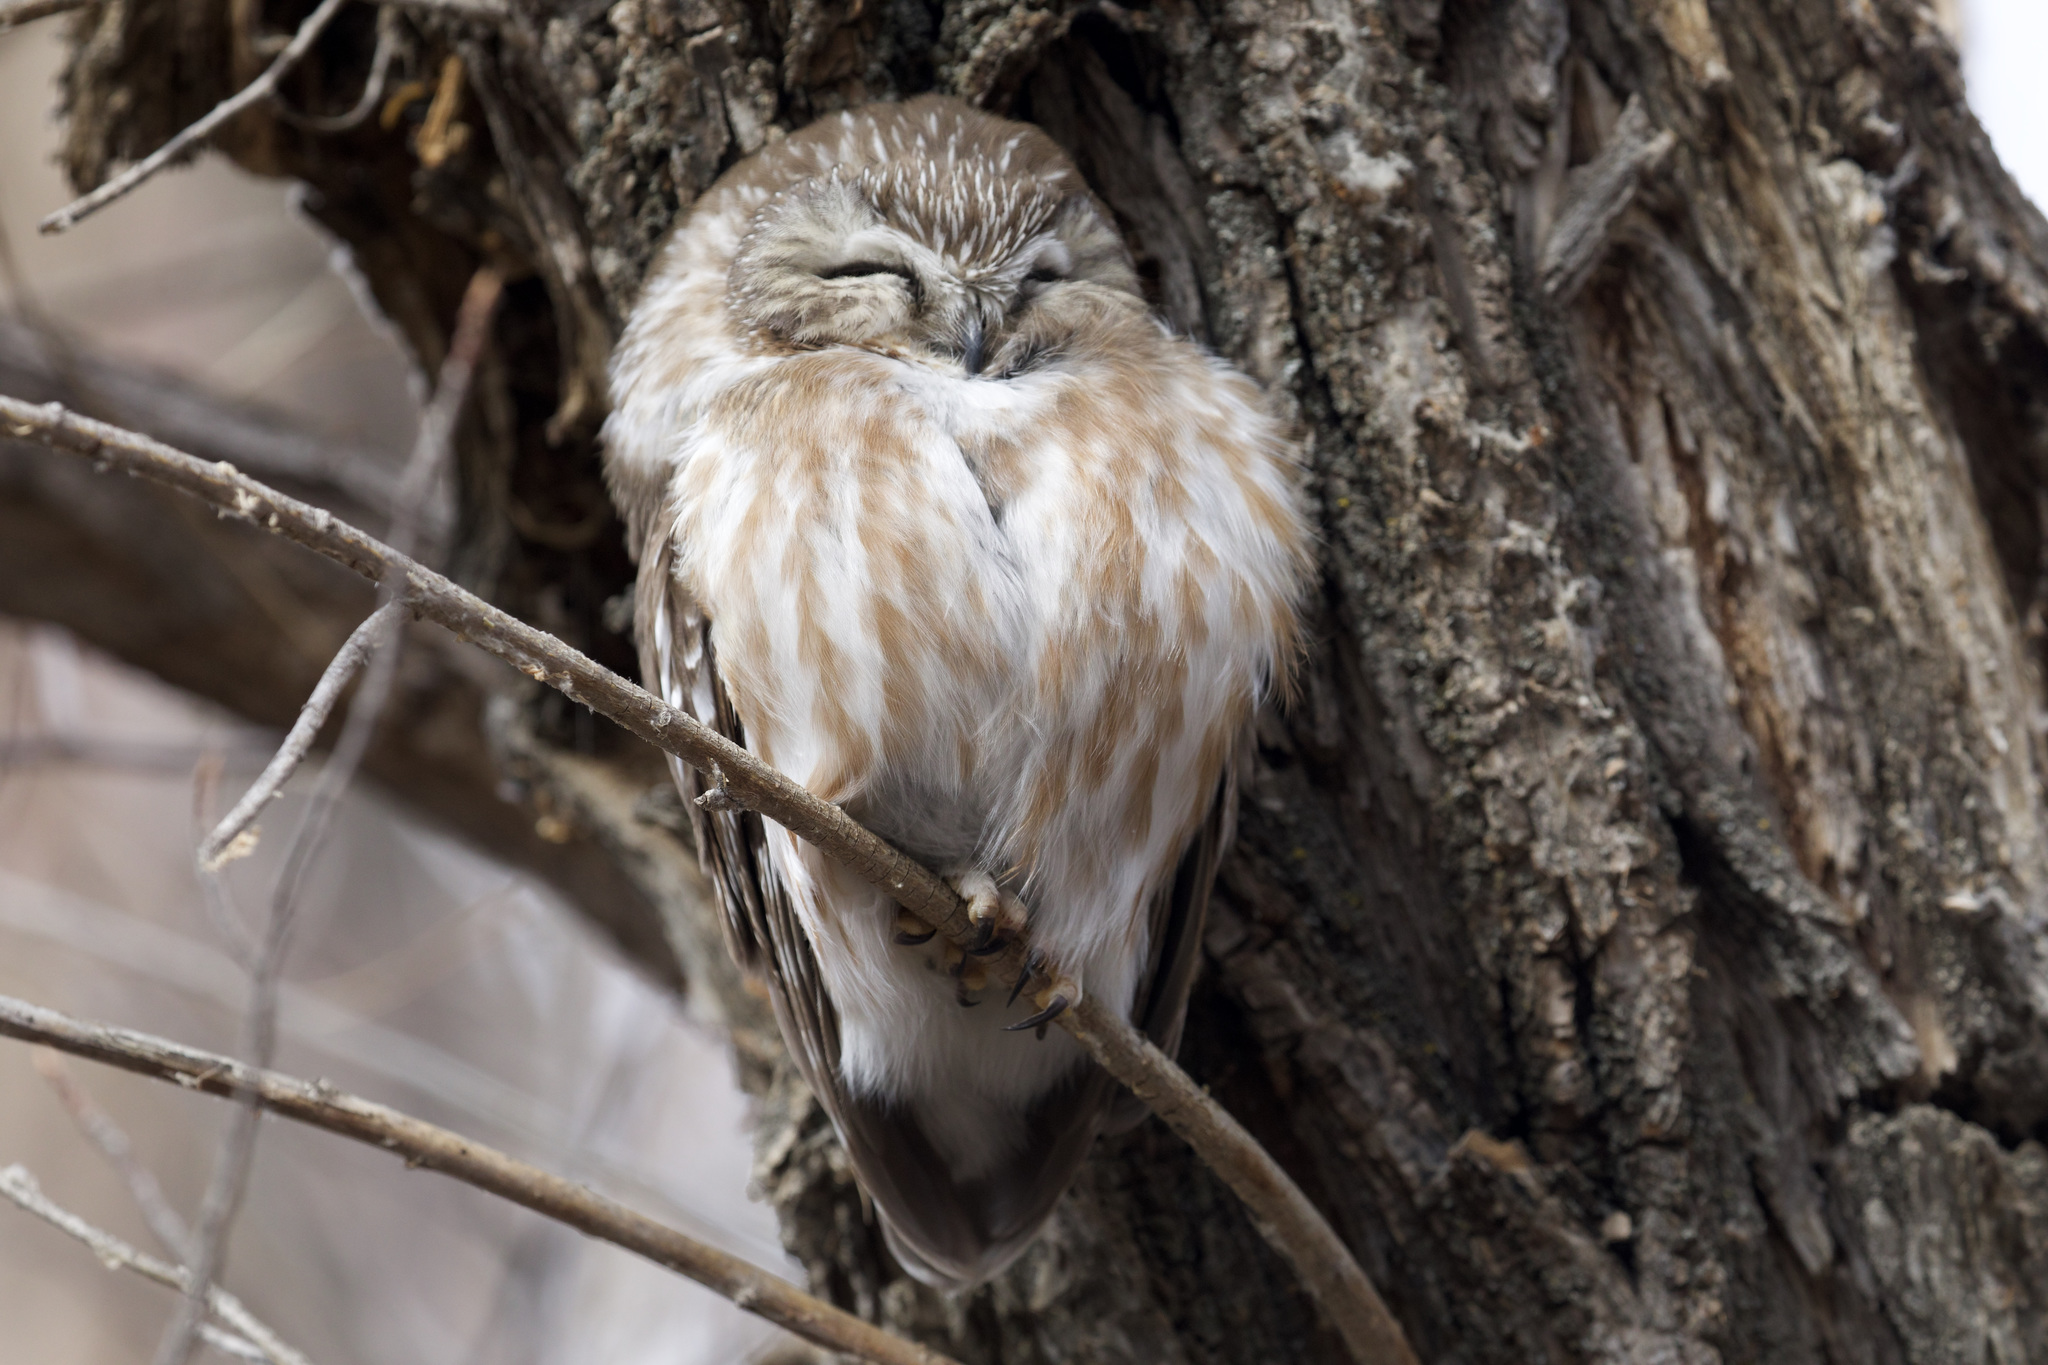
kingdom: Animalia
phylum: Chordata
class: Aves
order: Strigiformes
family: Strigidae
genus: Aegolius
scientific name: Aegolius acadicus
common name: Northern saw-whet owl
